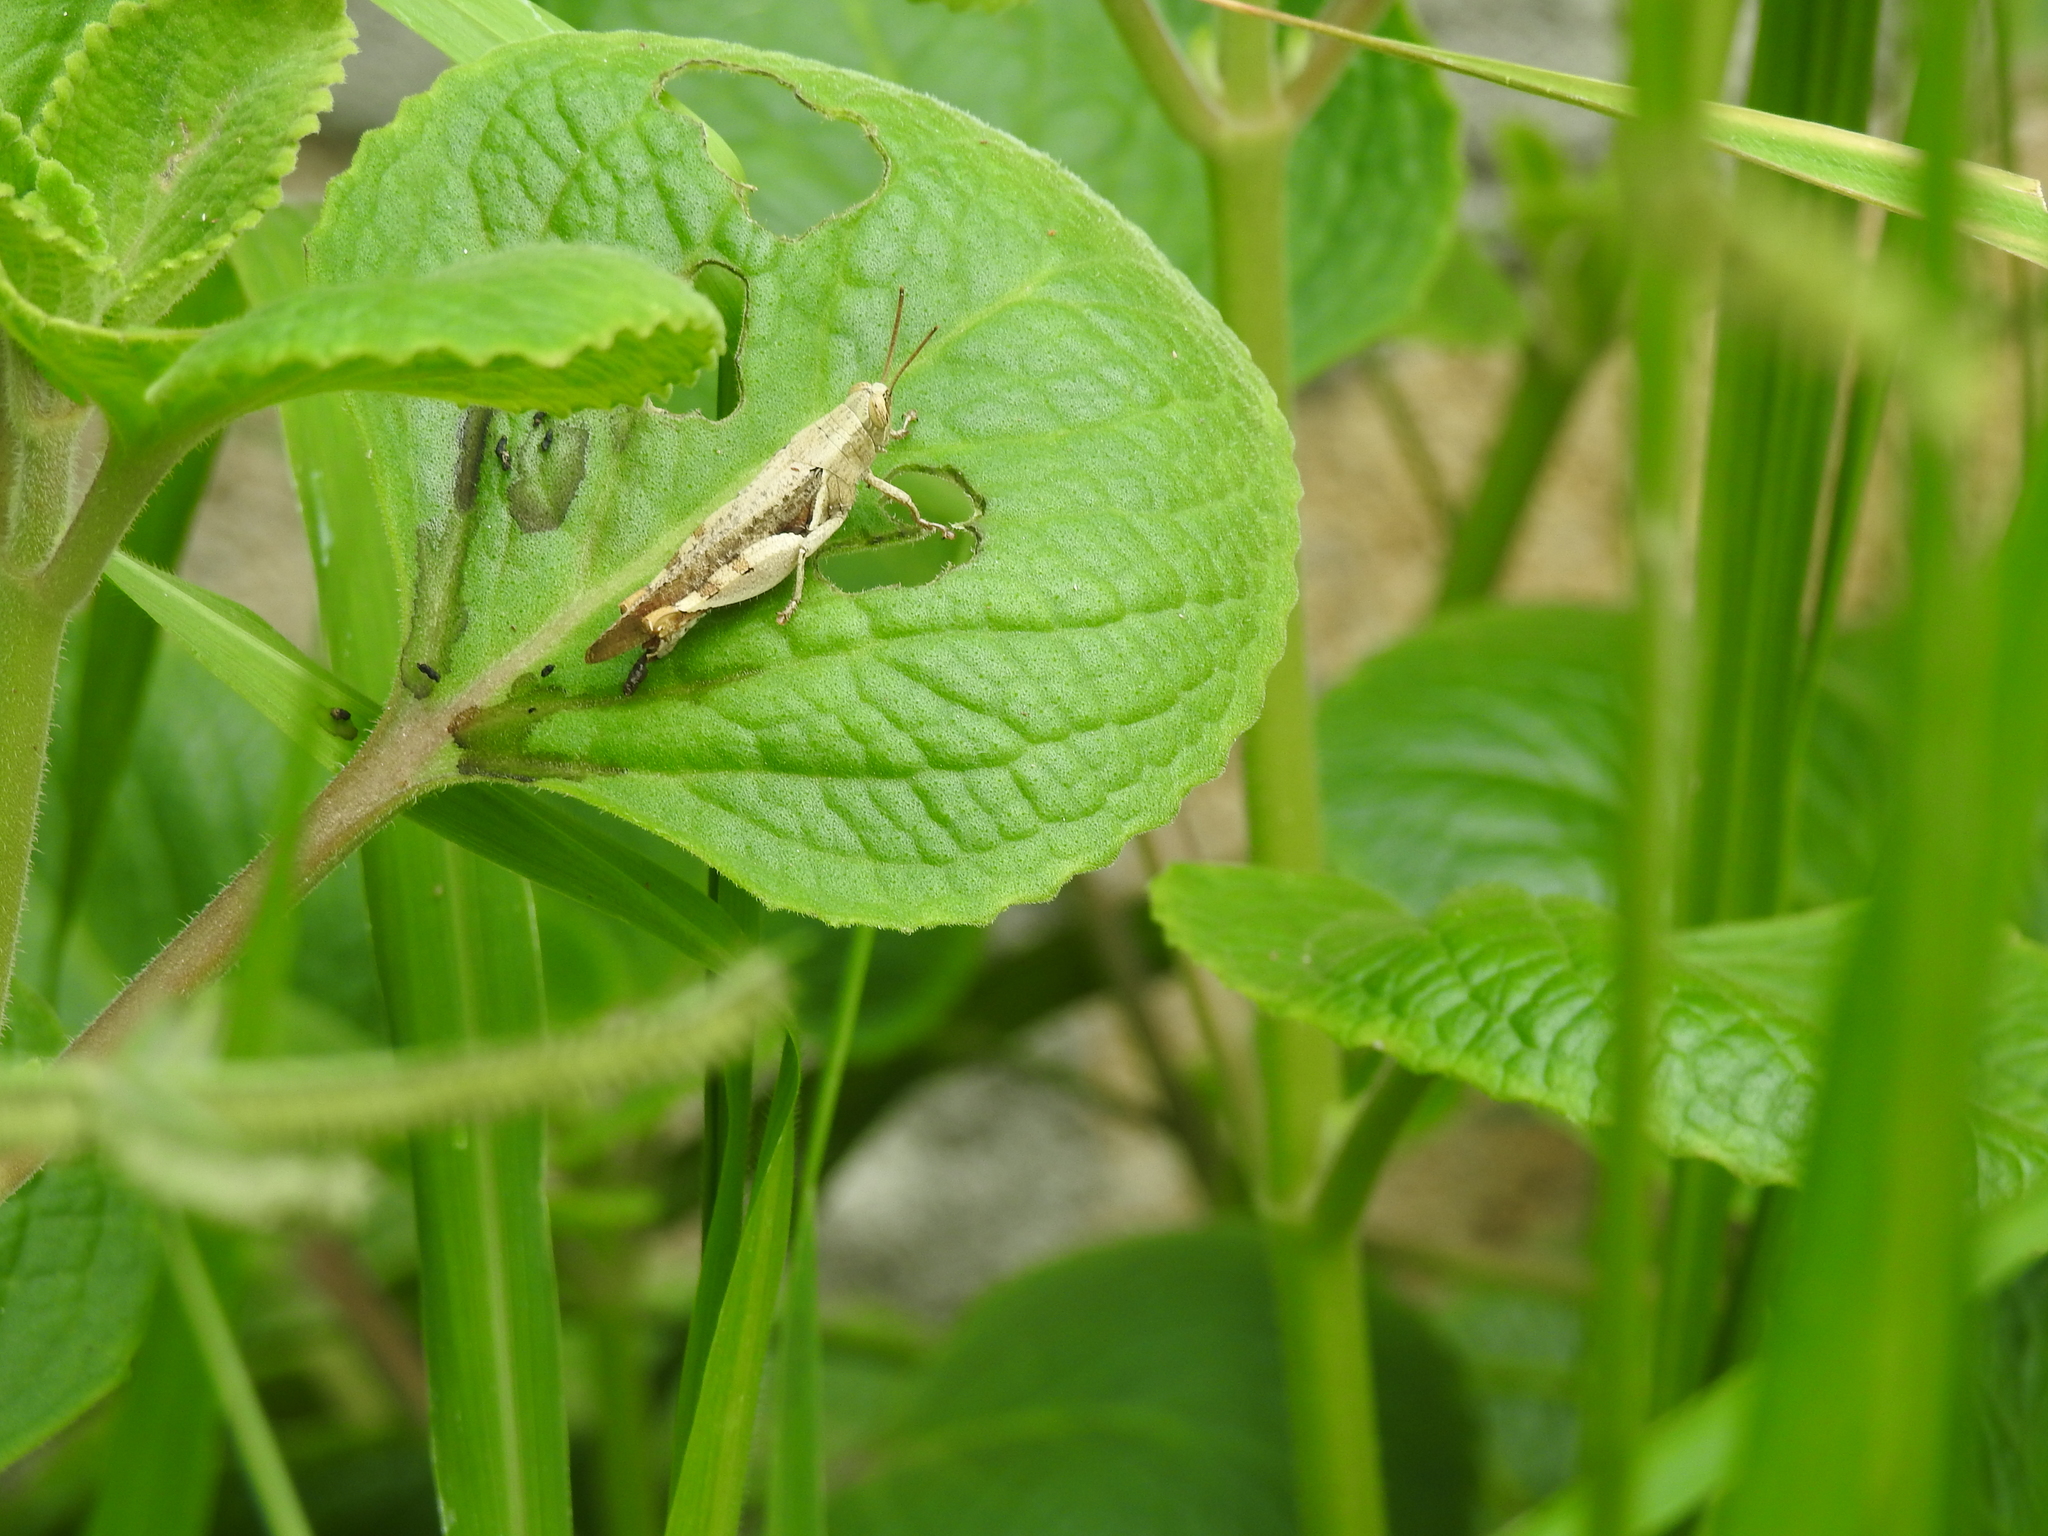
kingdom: Animalia
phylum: Arthropoda
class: Insecta
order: Orthoptera
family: Acrididae
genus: Diabolocatantops
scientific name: Diabolocatantops innotabilis
